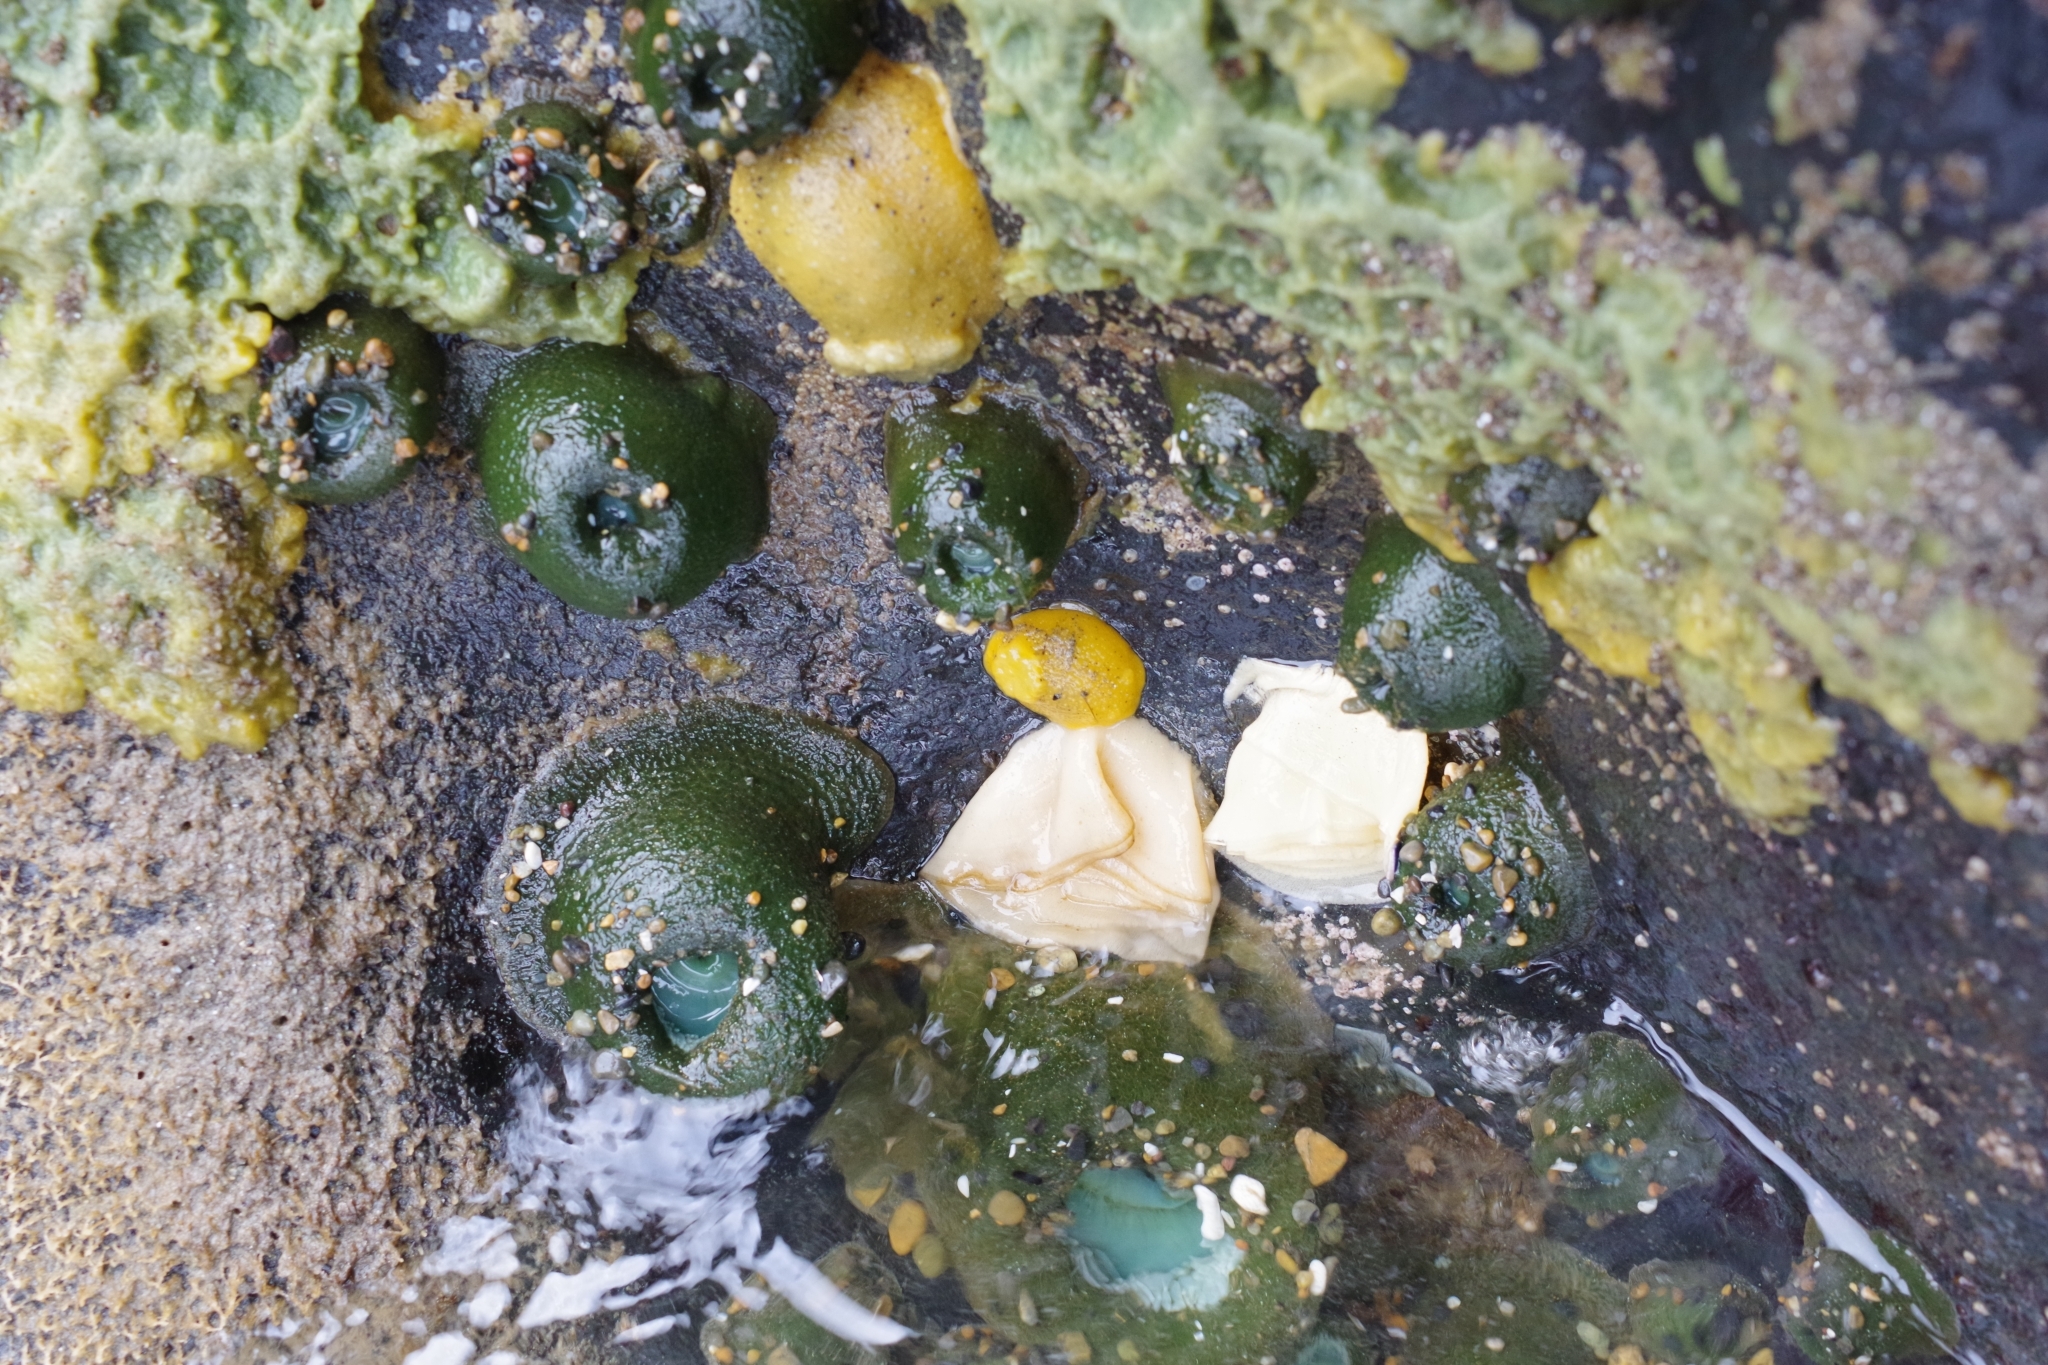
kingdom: Animalia
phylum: Mollusca
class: Gastropoda
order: Nudibranchia
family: Dorididae
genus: Doris
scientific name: Doris montereyensis
